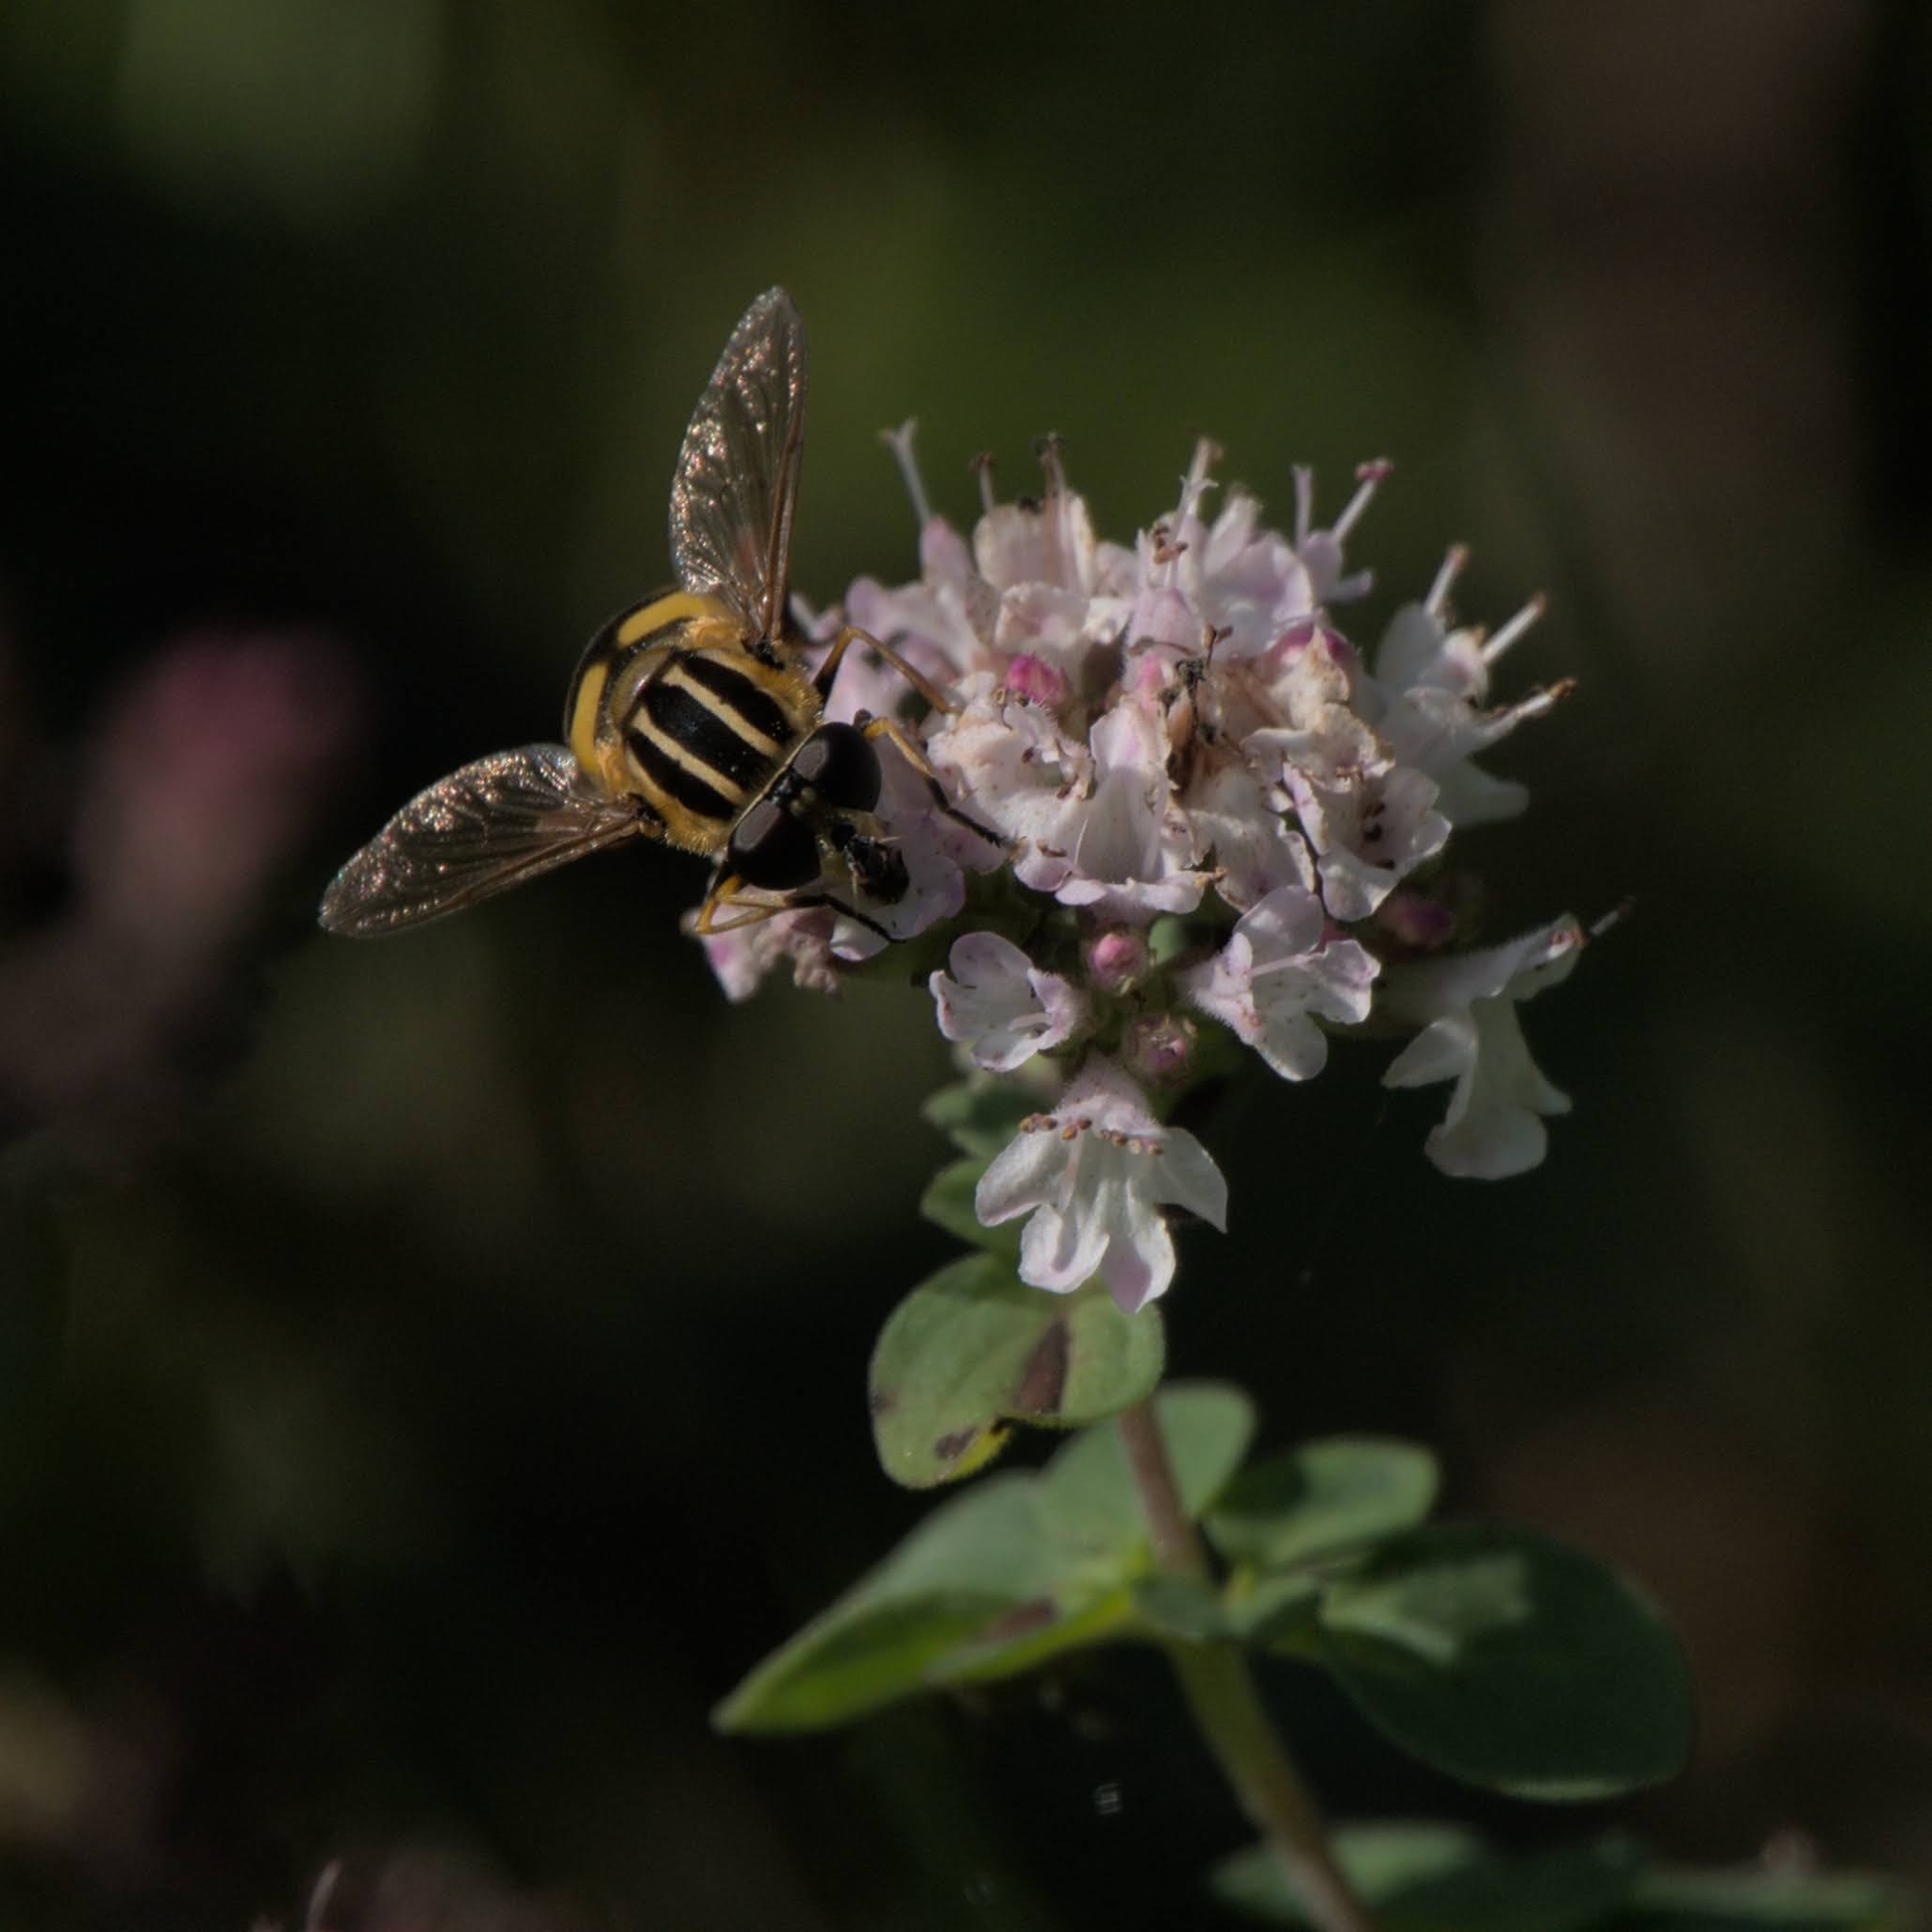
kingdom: Animalia
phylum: Arthropoda
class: Insecta
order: Diptera
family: Syrphidae
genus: Helophilus
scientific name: Helophilus pendulus
